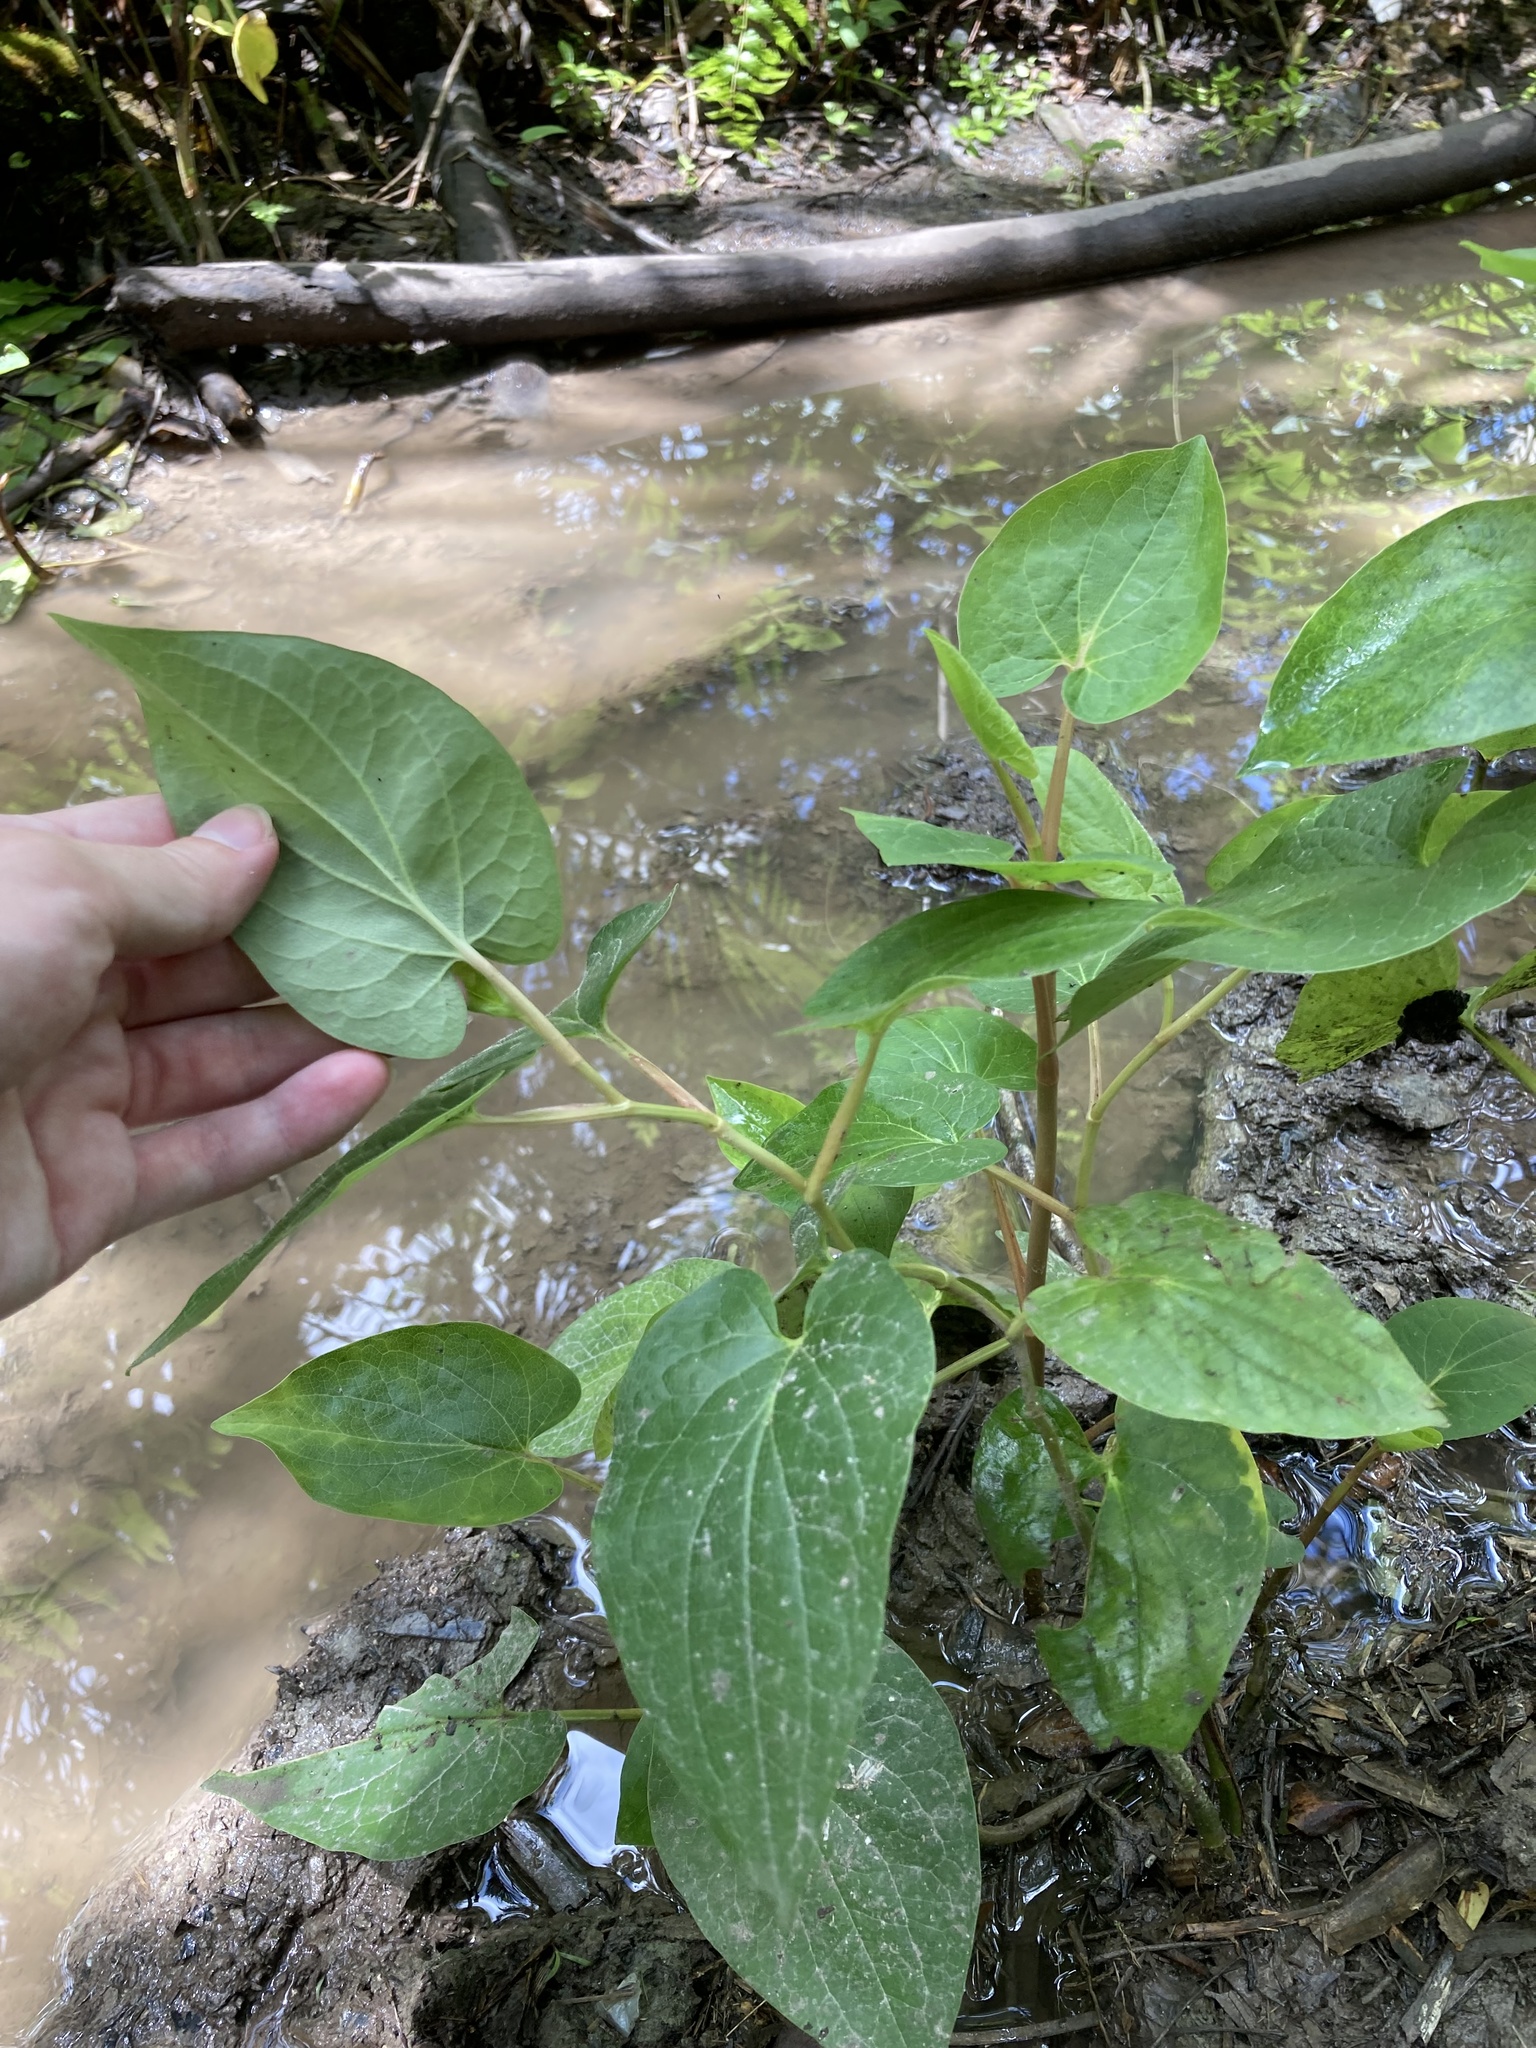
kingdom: Plantae
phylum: Tracheophyta
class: Magnoliopsida
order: Piperales
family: Saururaceae
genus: Saururus
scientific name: Saururus cernuus
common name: Lizard's-tail
